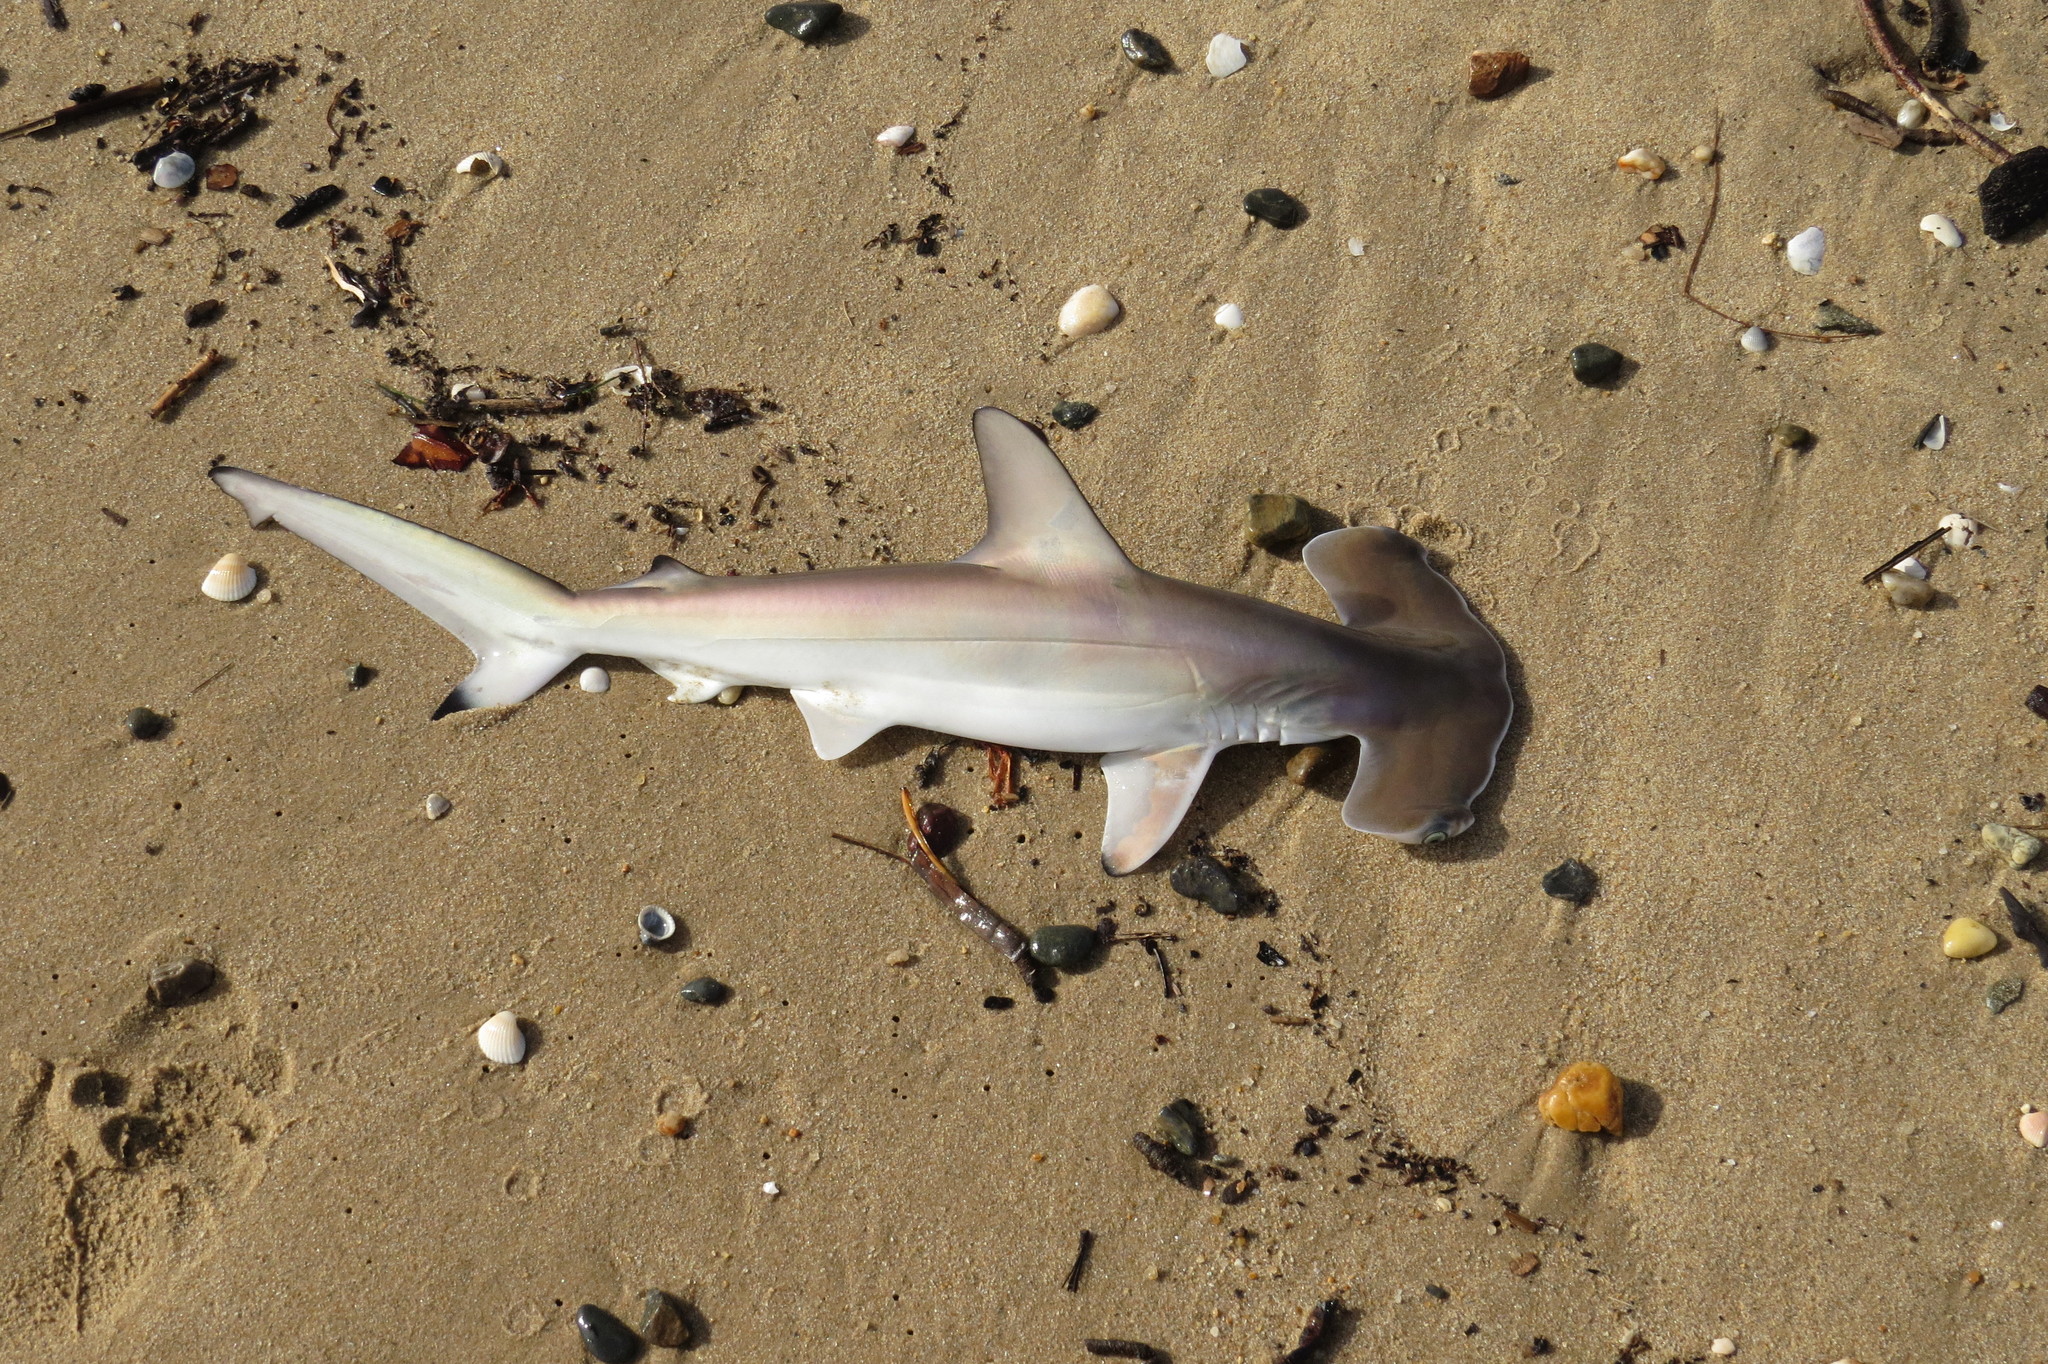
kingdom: Animalia
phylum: Chordata
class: Elasmobranchii
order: Carcharhiniformes
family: Sphyrnidae
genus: Sphyrna
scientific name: Sphyrna lewini
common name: Scalloped hammerhead
